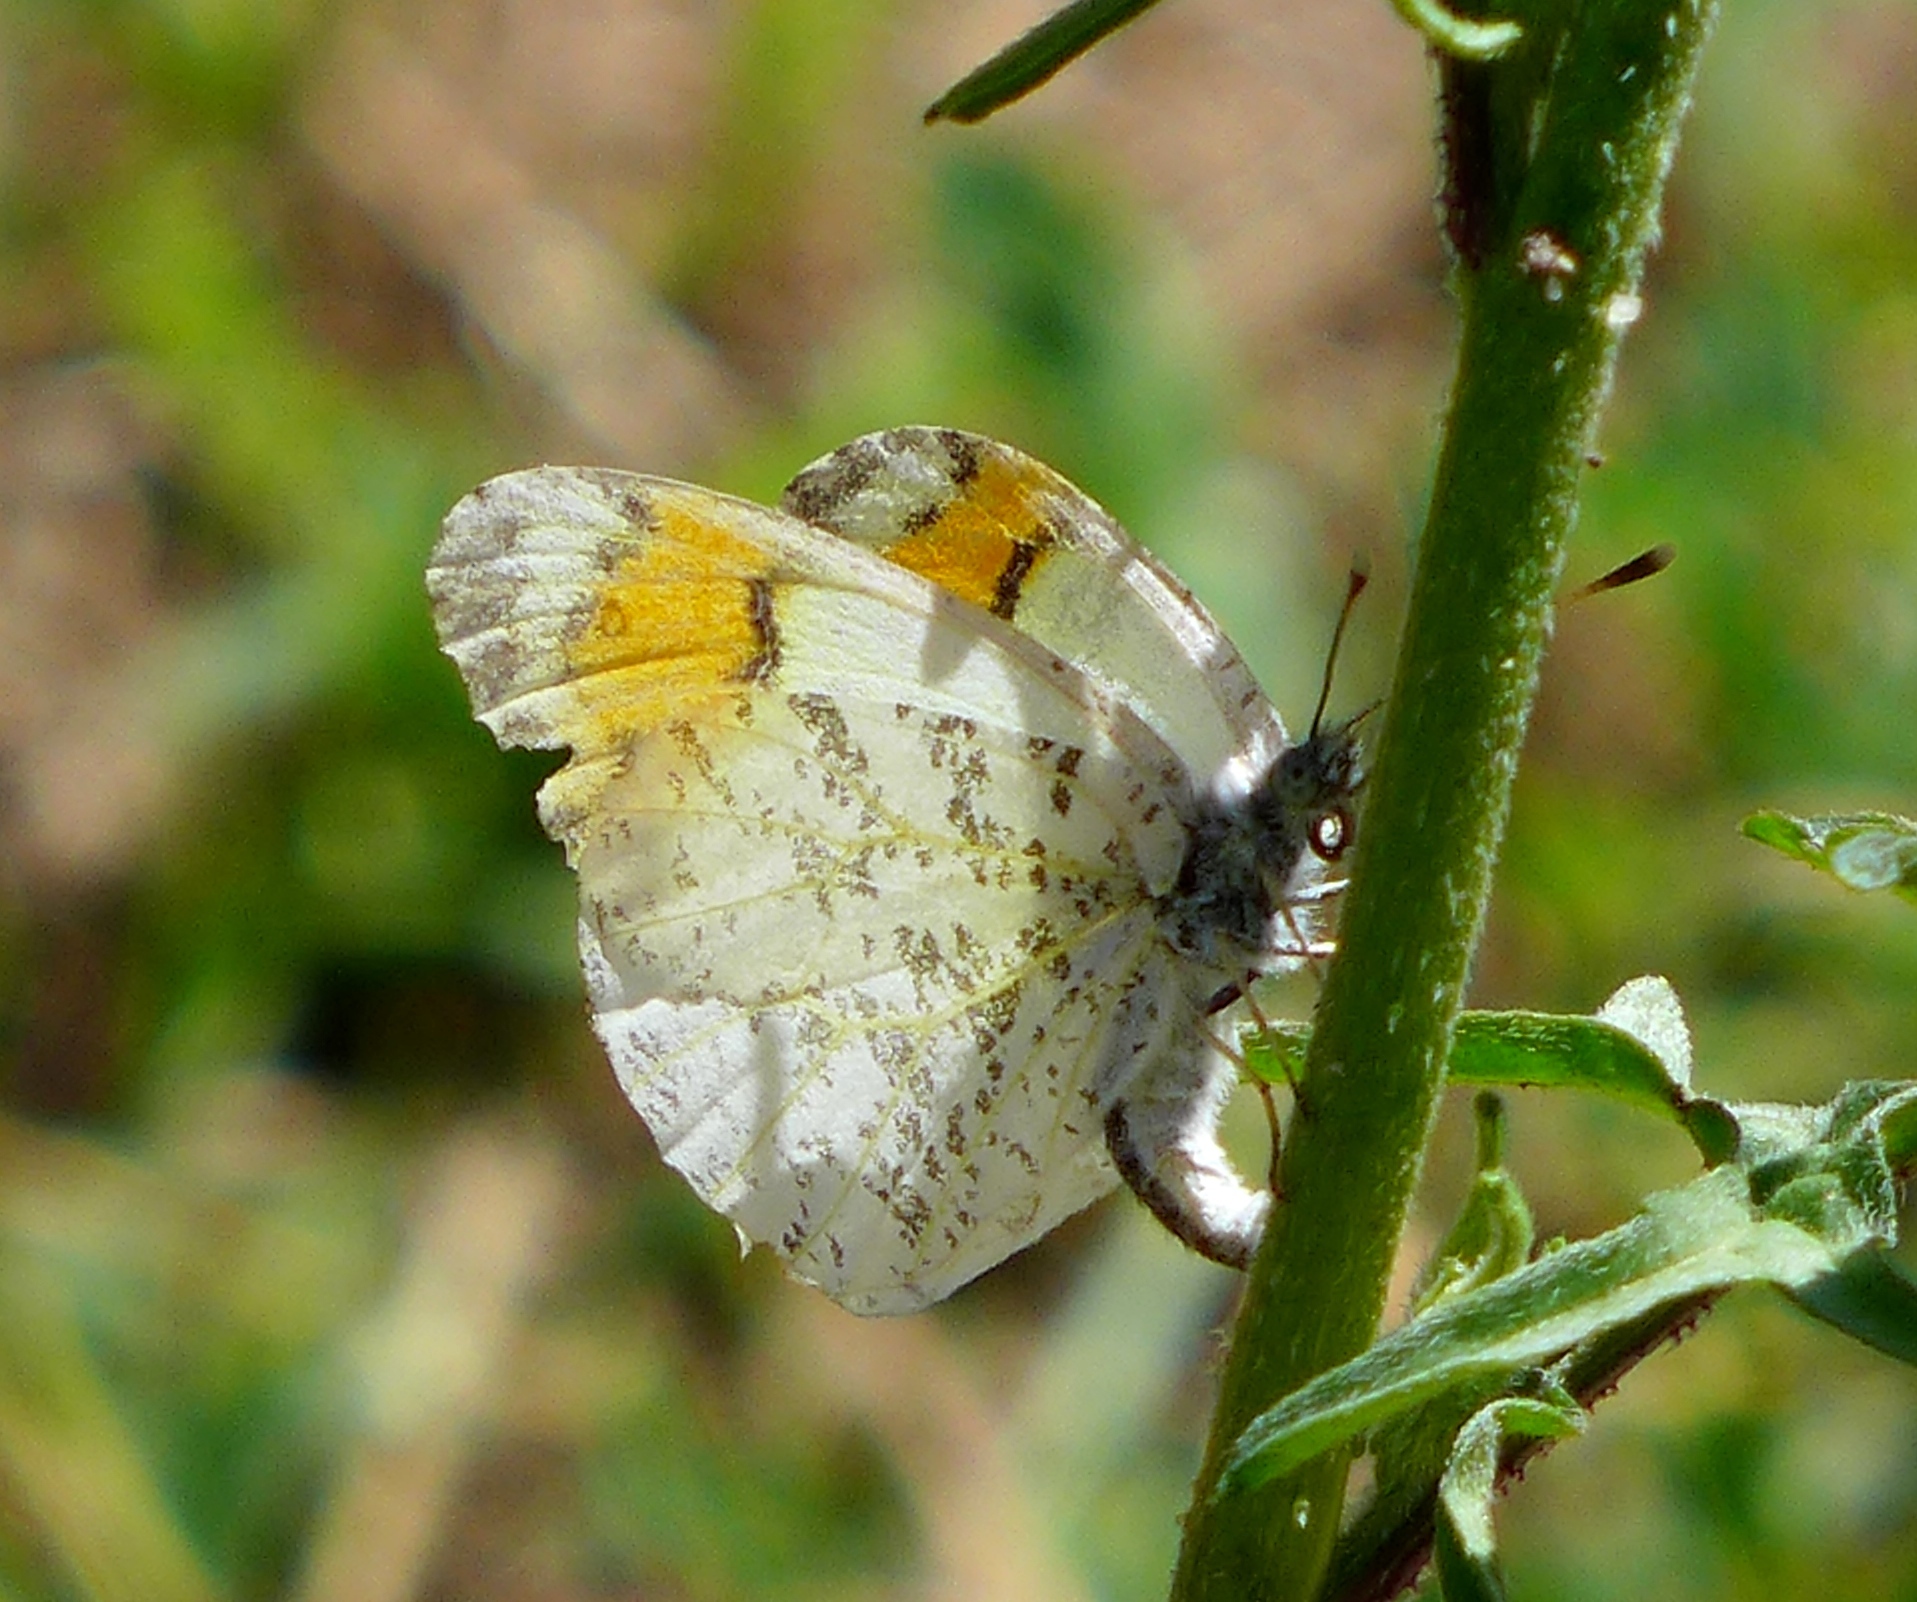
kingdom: Animalia
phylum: Arthropoda
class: Insecta
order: Lepidoptera
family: Pieridae
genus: Anthocharis
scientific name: Anthocharis sara
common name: Sara's orangetip
